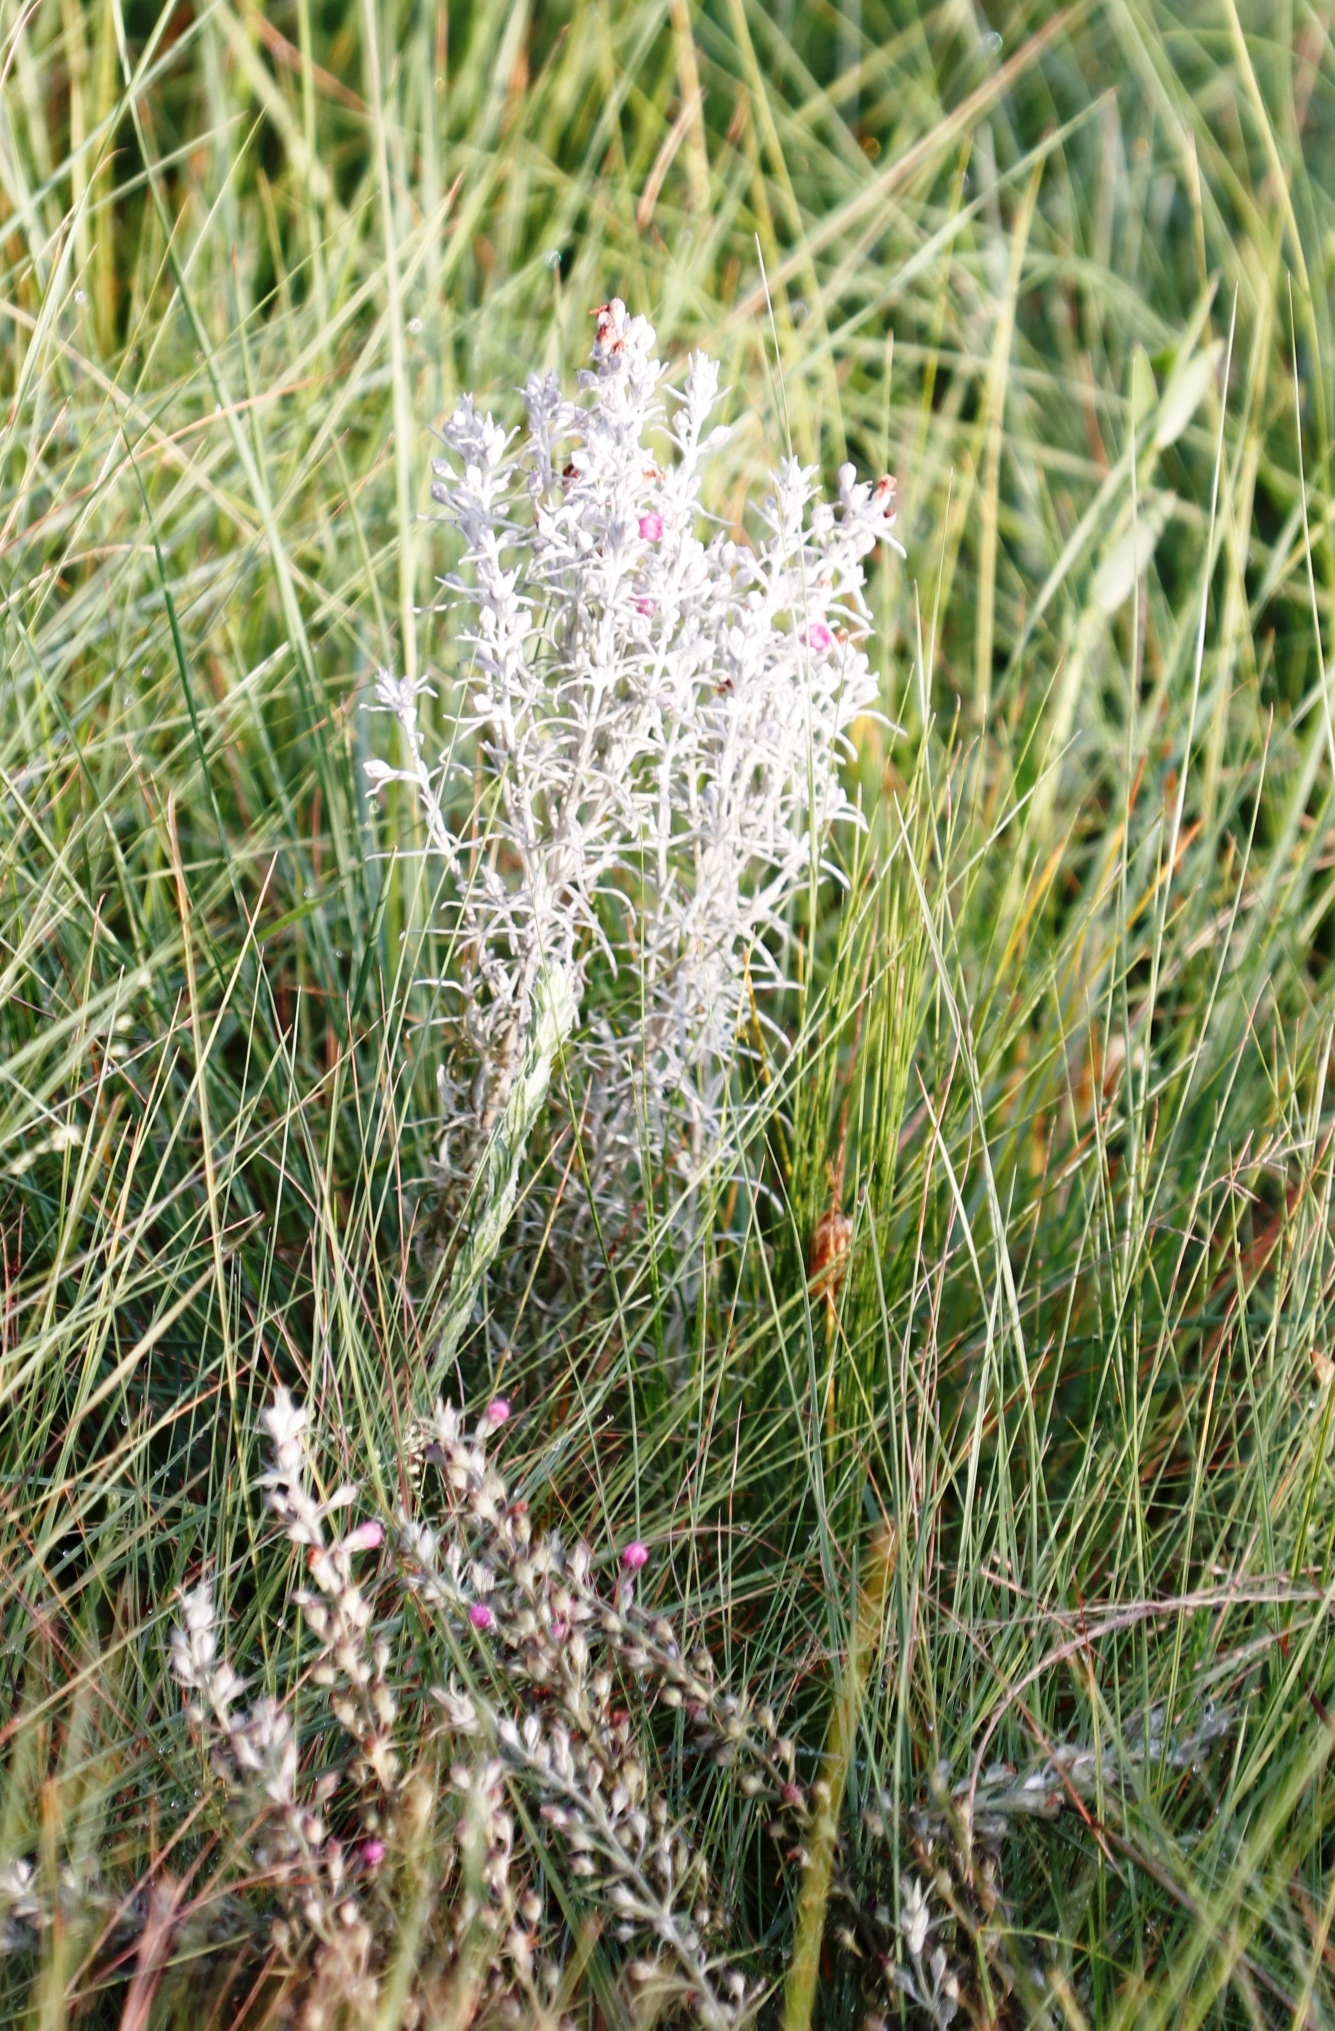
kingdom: Plantae
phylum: Tracheophyta
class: Magnoliopsida
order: Lamiales
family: Orobanchaceae
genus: Sopubia
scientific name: Sopubia cana
